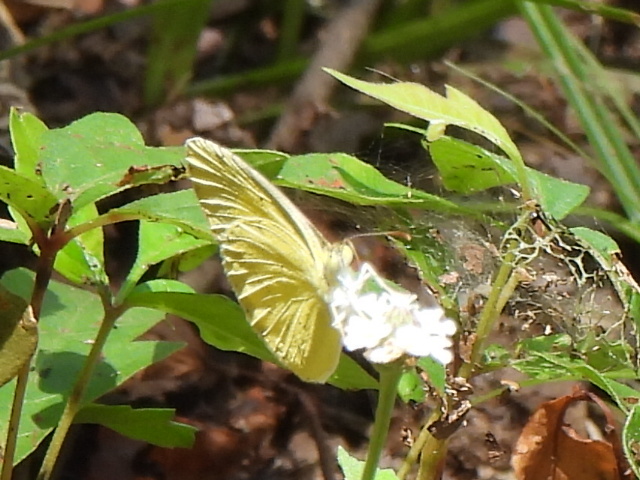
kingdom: Animalia
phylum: Arthropoda
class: Insecta
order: Lepidoptera
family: Pieridae
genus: Pyrisitia
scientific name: Pyrisitia lisa
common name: Little yellow
